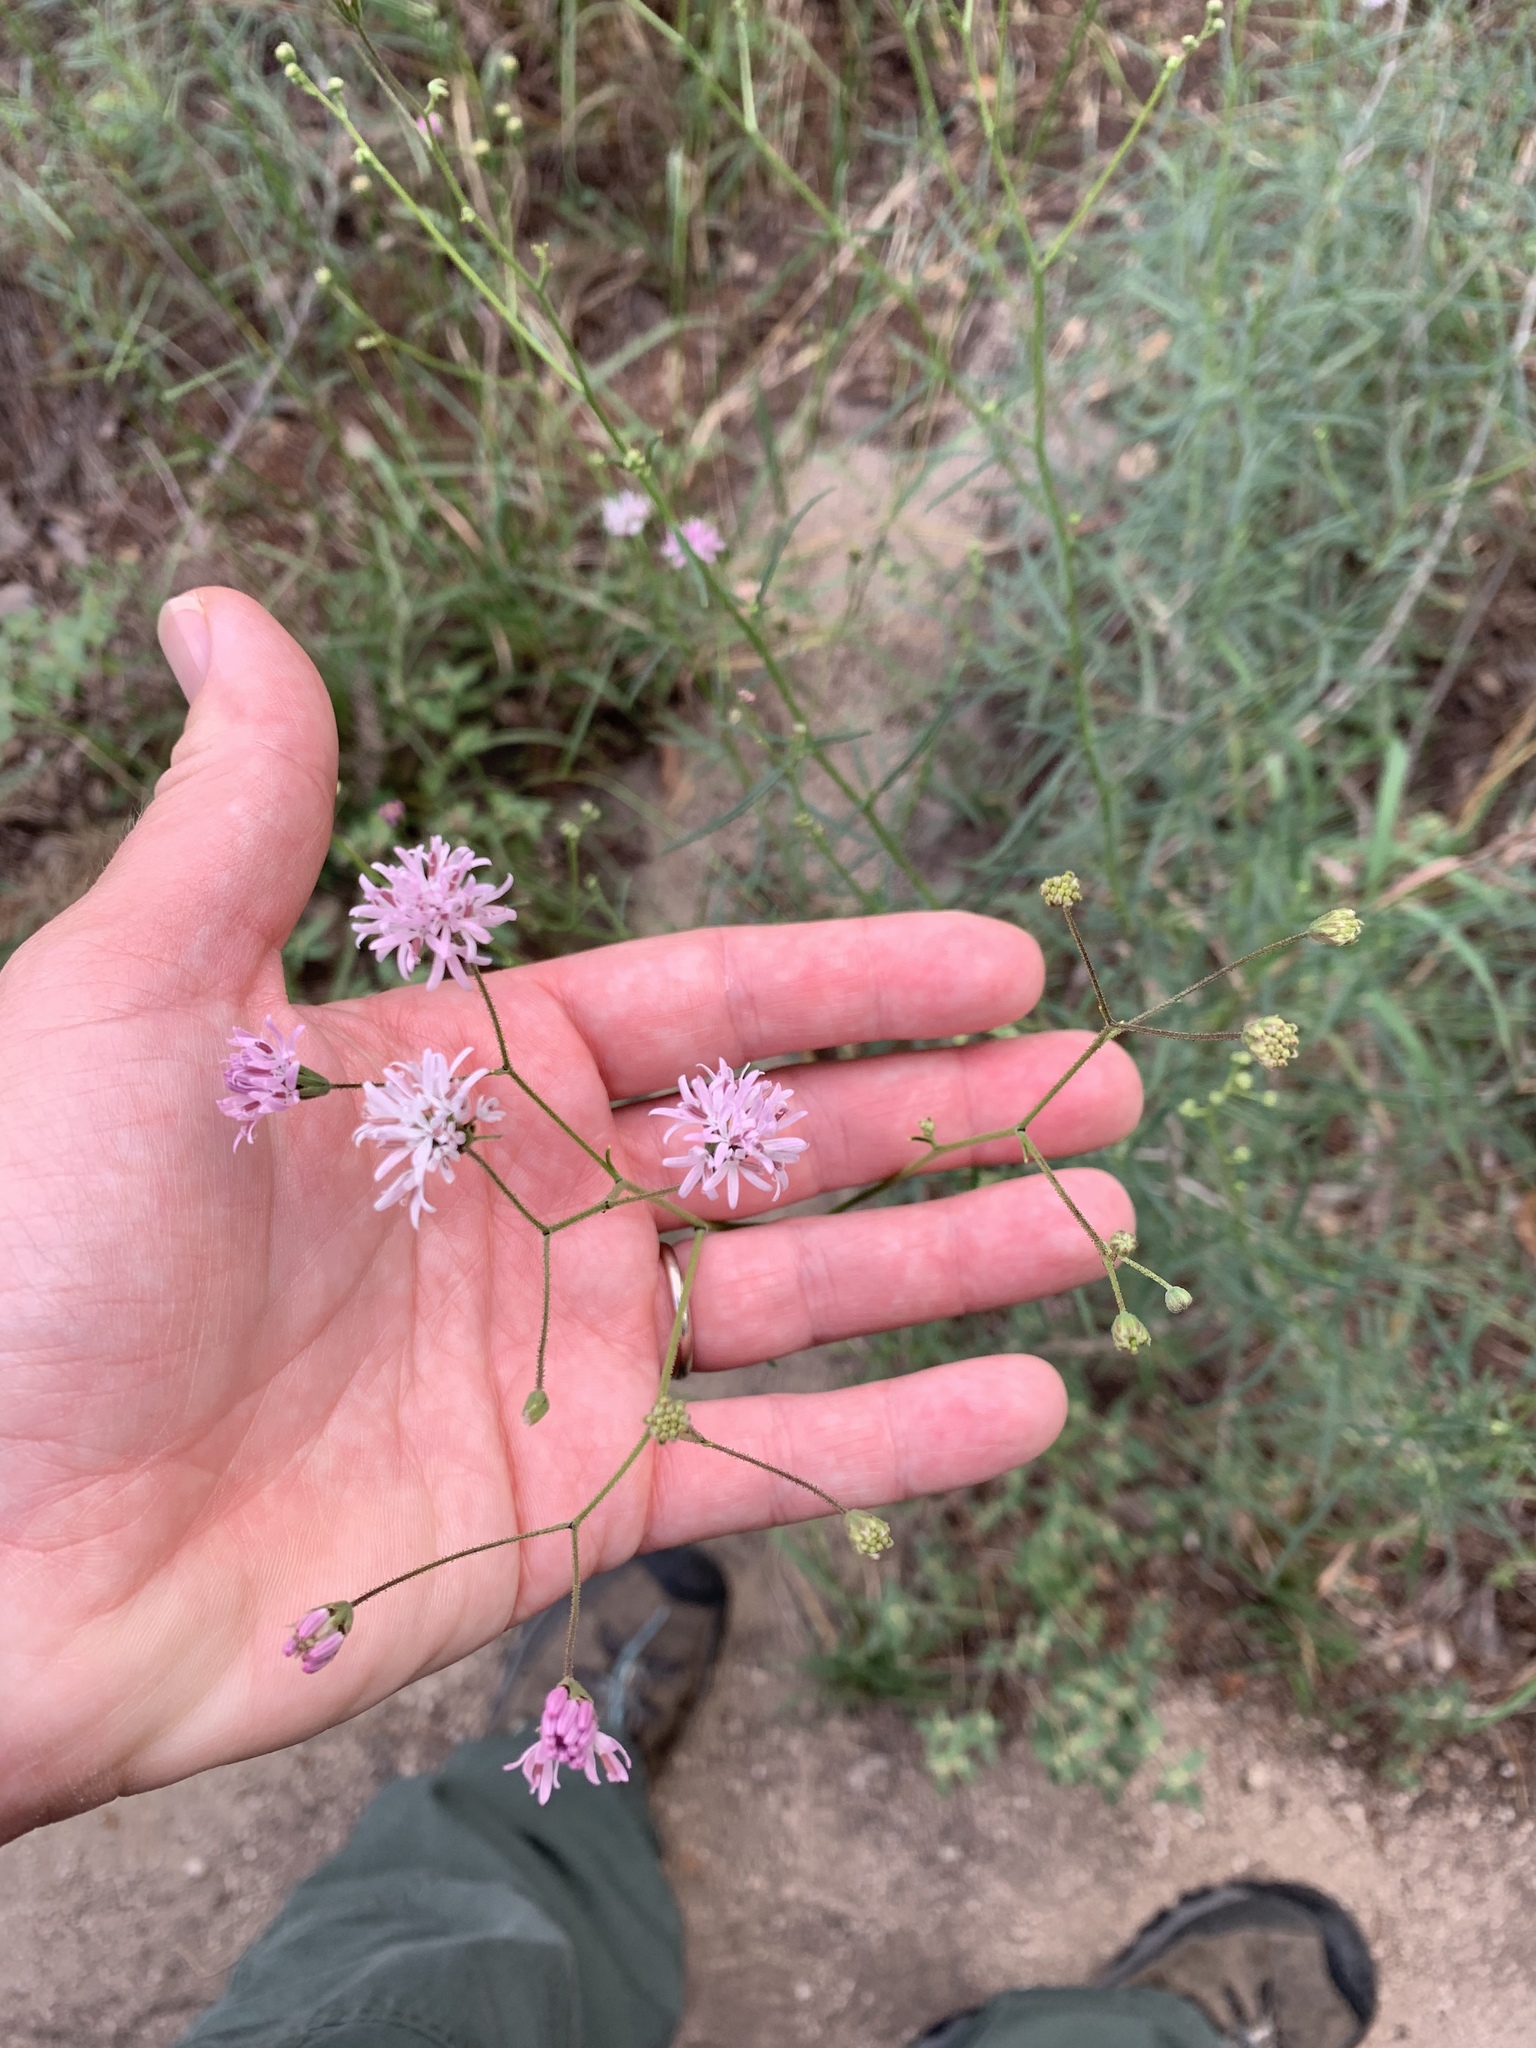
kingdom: Plantae
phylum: Tracheophyta
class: Magnoliopsida
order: Asterales
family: Asteraceae
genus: Palafoxia
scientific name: Palafoxia callosa
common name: Small palafox
